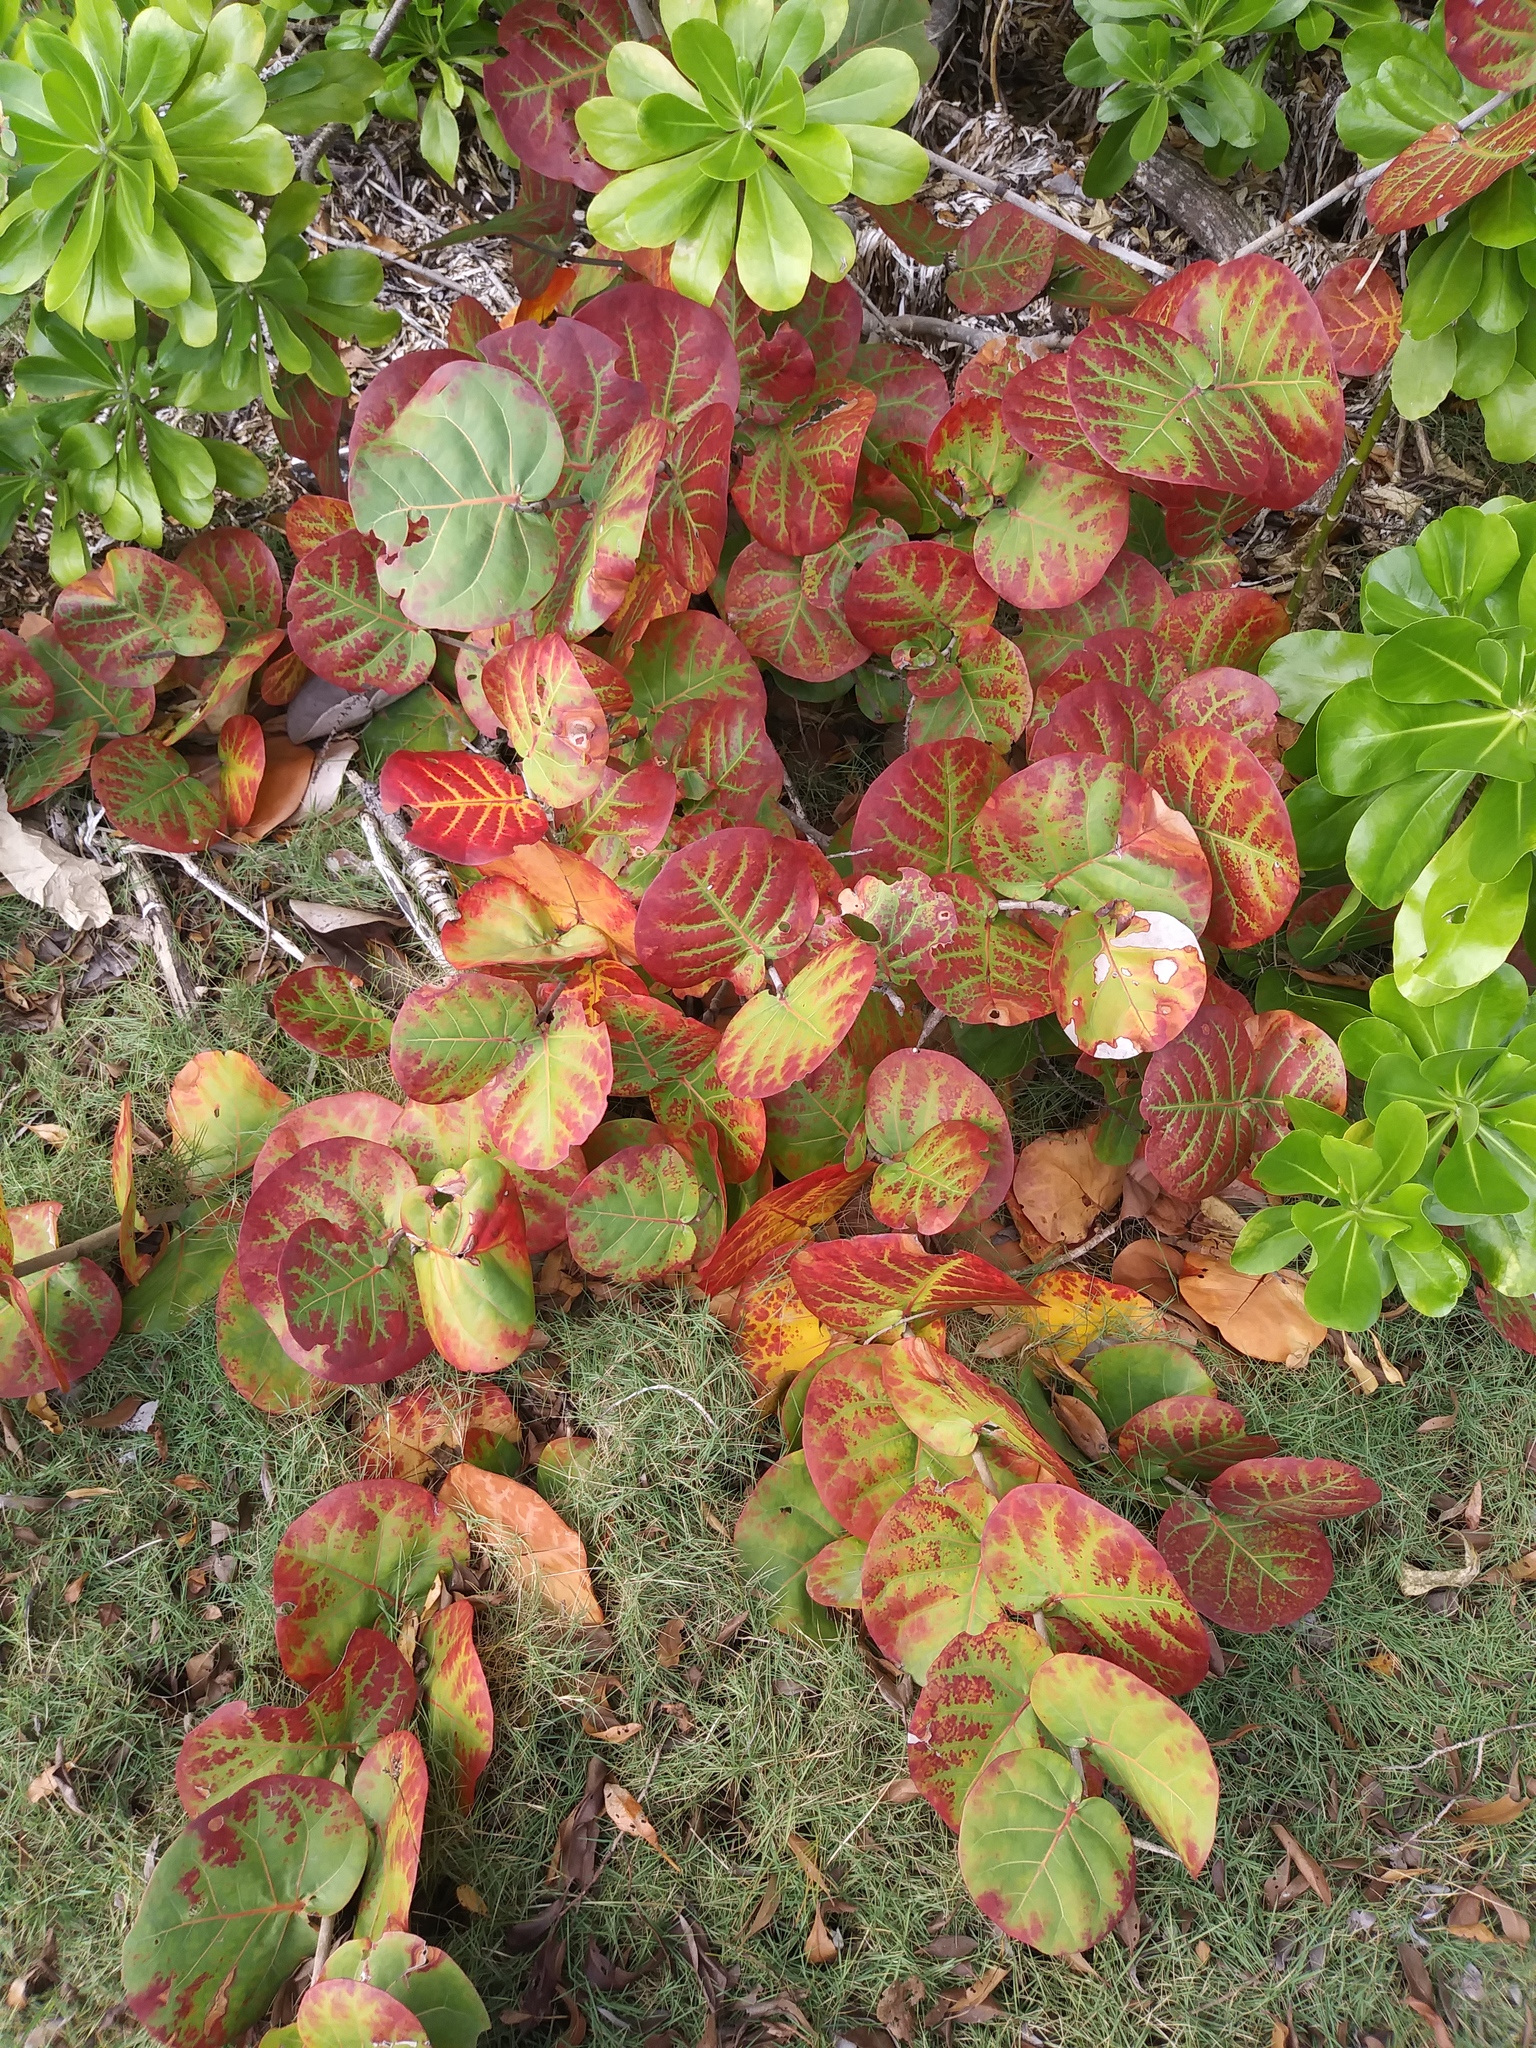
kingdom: Plantae
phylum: Tracheophyta
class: Magnoliopsida
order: Caryophyllales
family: Polygonaceae
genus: Coccoloba
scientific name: Coccoloba uvifera
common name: Seagrape
